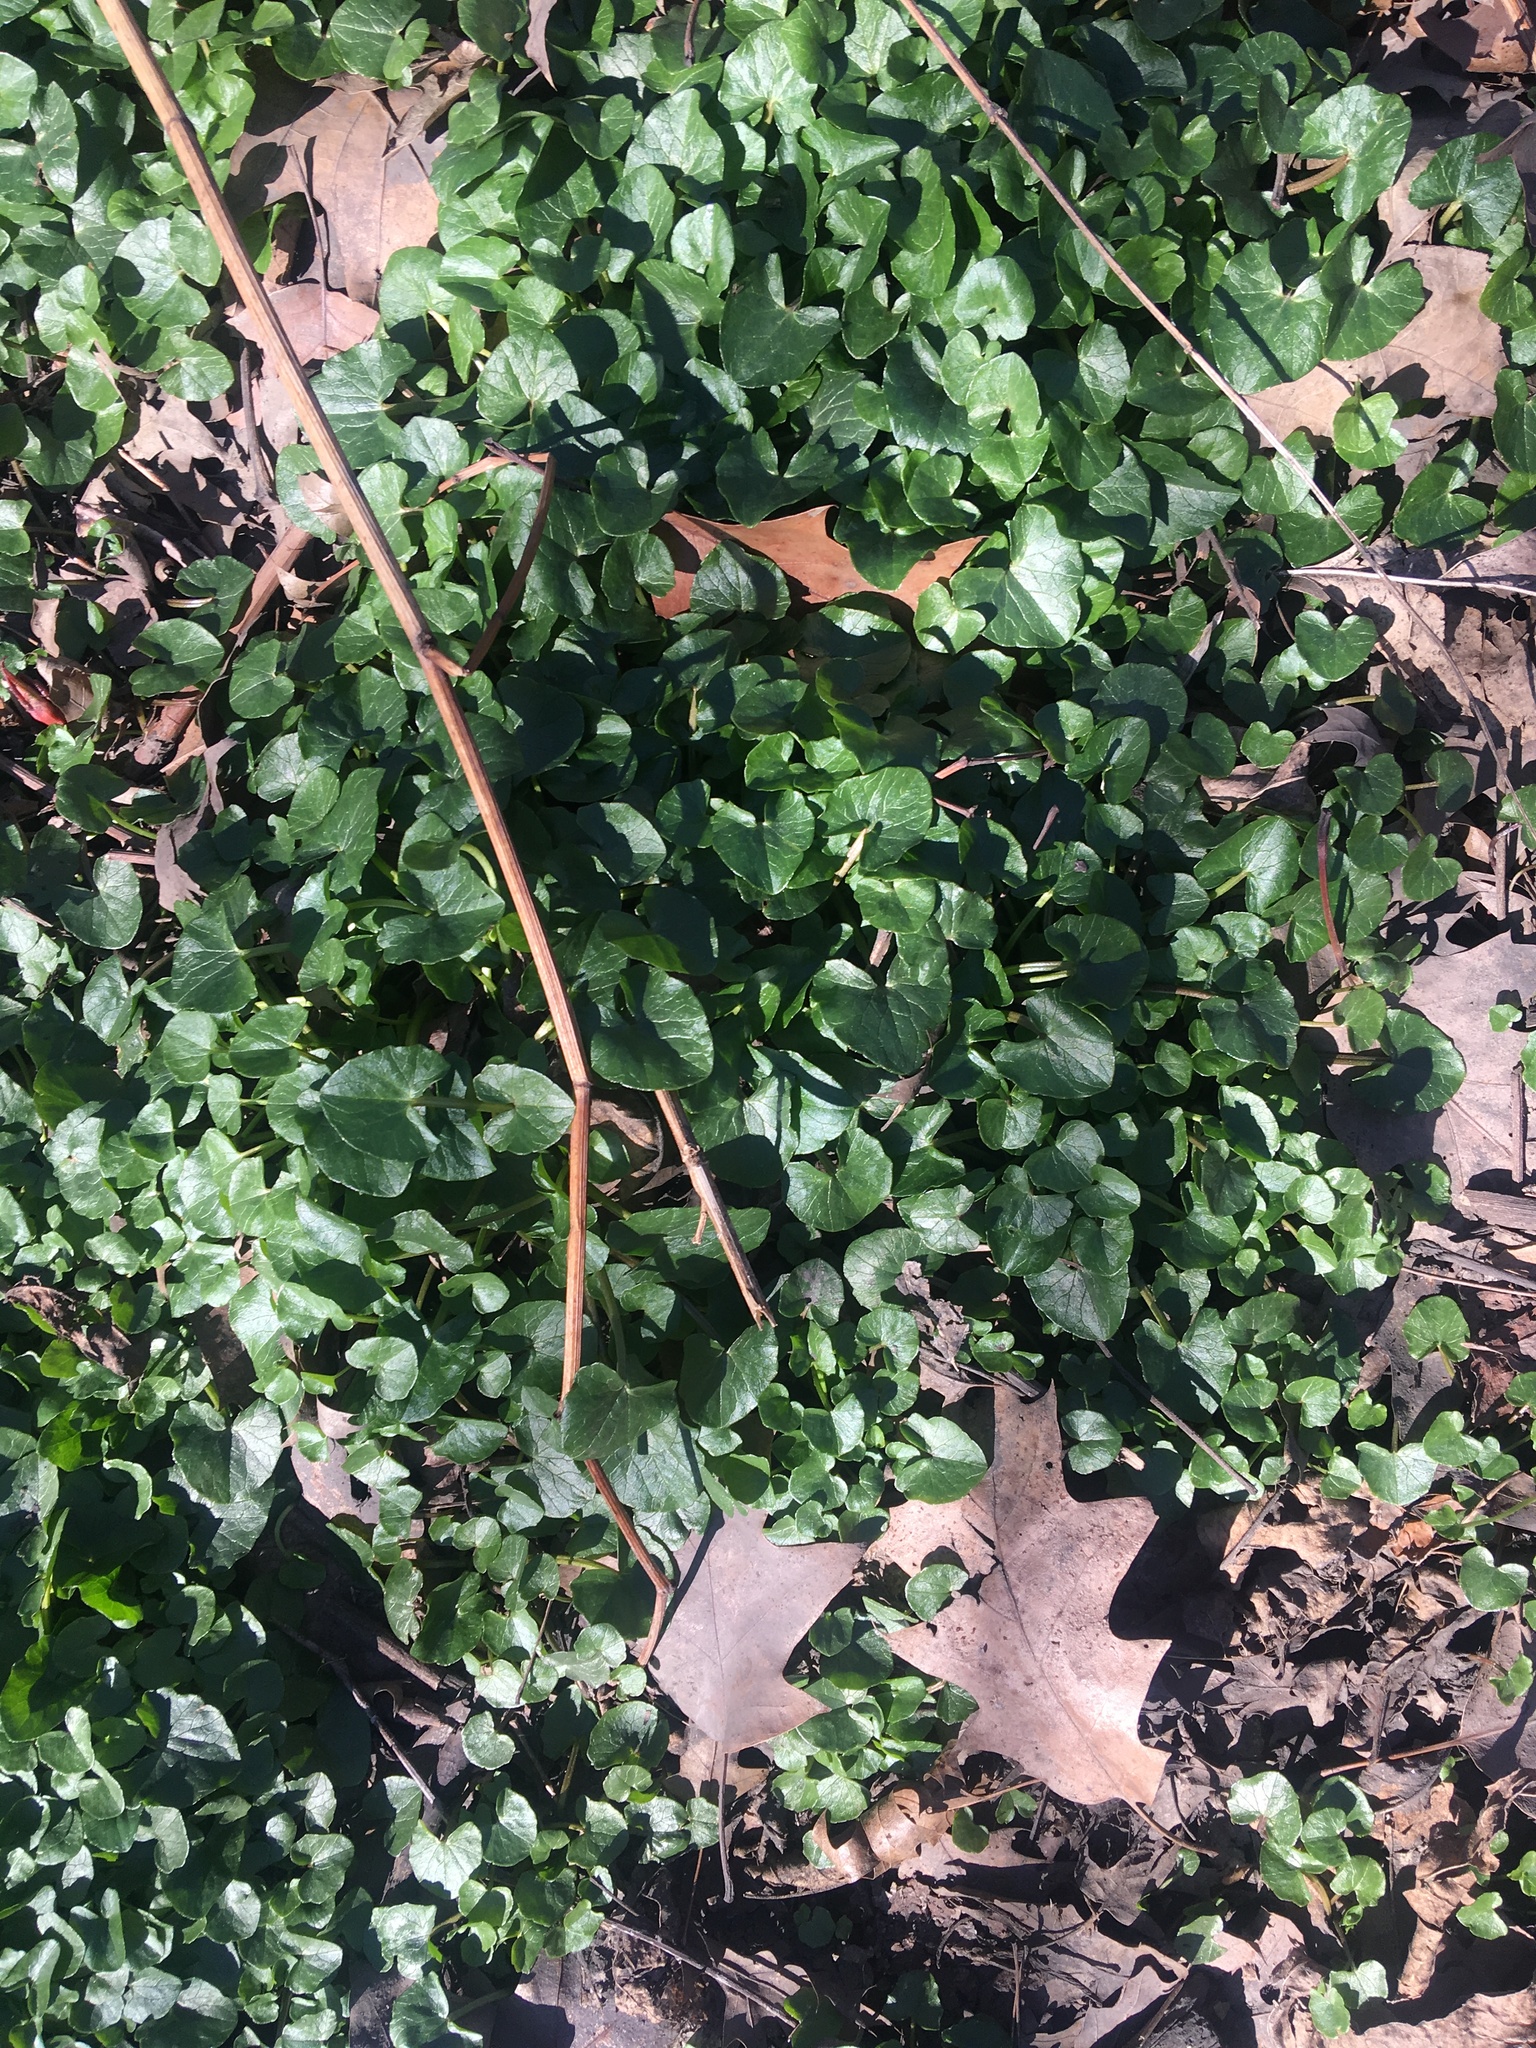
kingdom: Plantae
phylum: Tracheophyta
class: Magnoliopsida
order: Ranunculales
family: Ranunculaceae
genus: Ficaria
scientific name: Ficaria verna
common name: Lesser celandine
